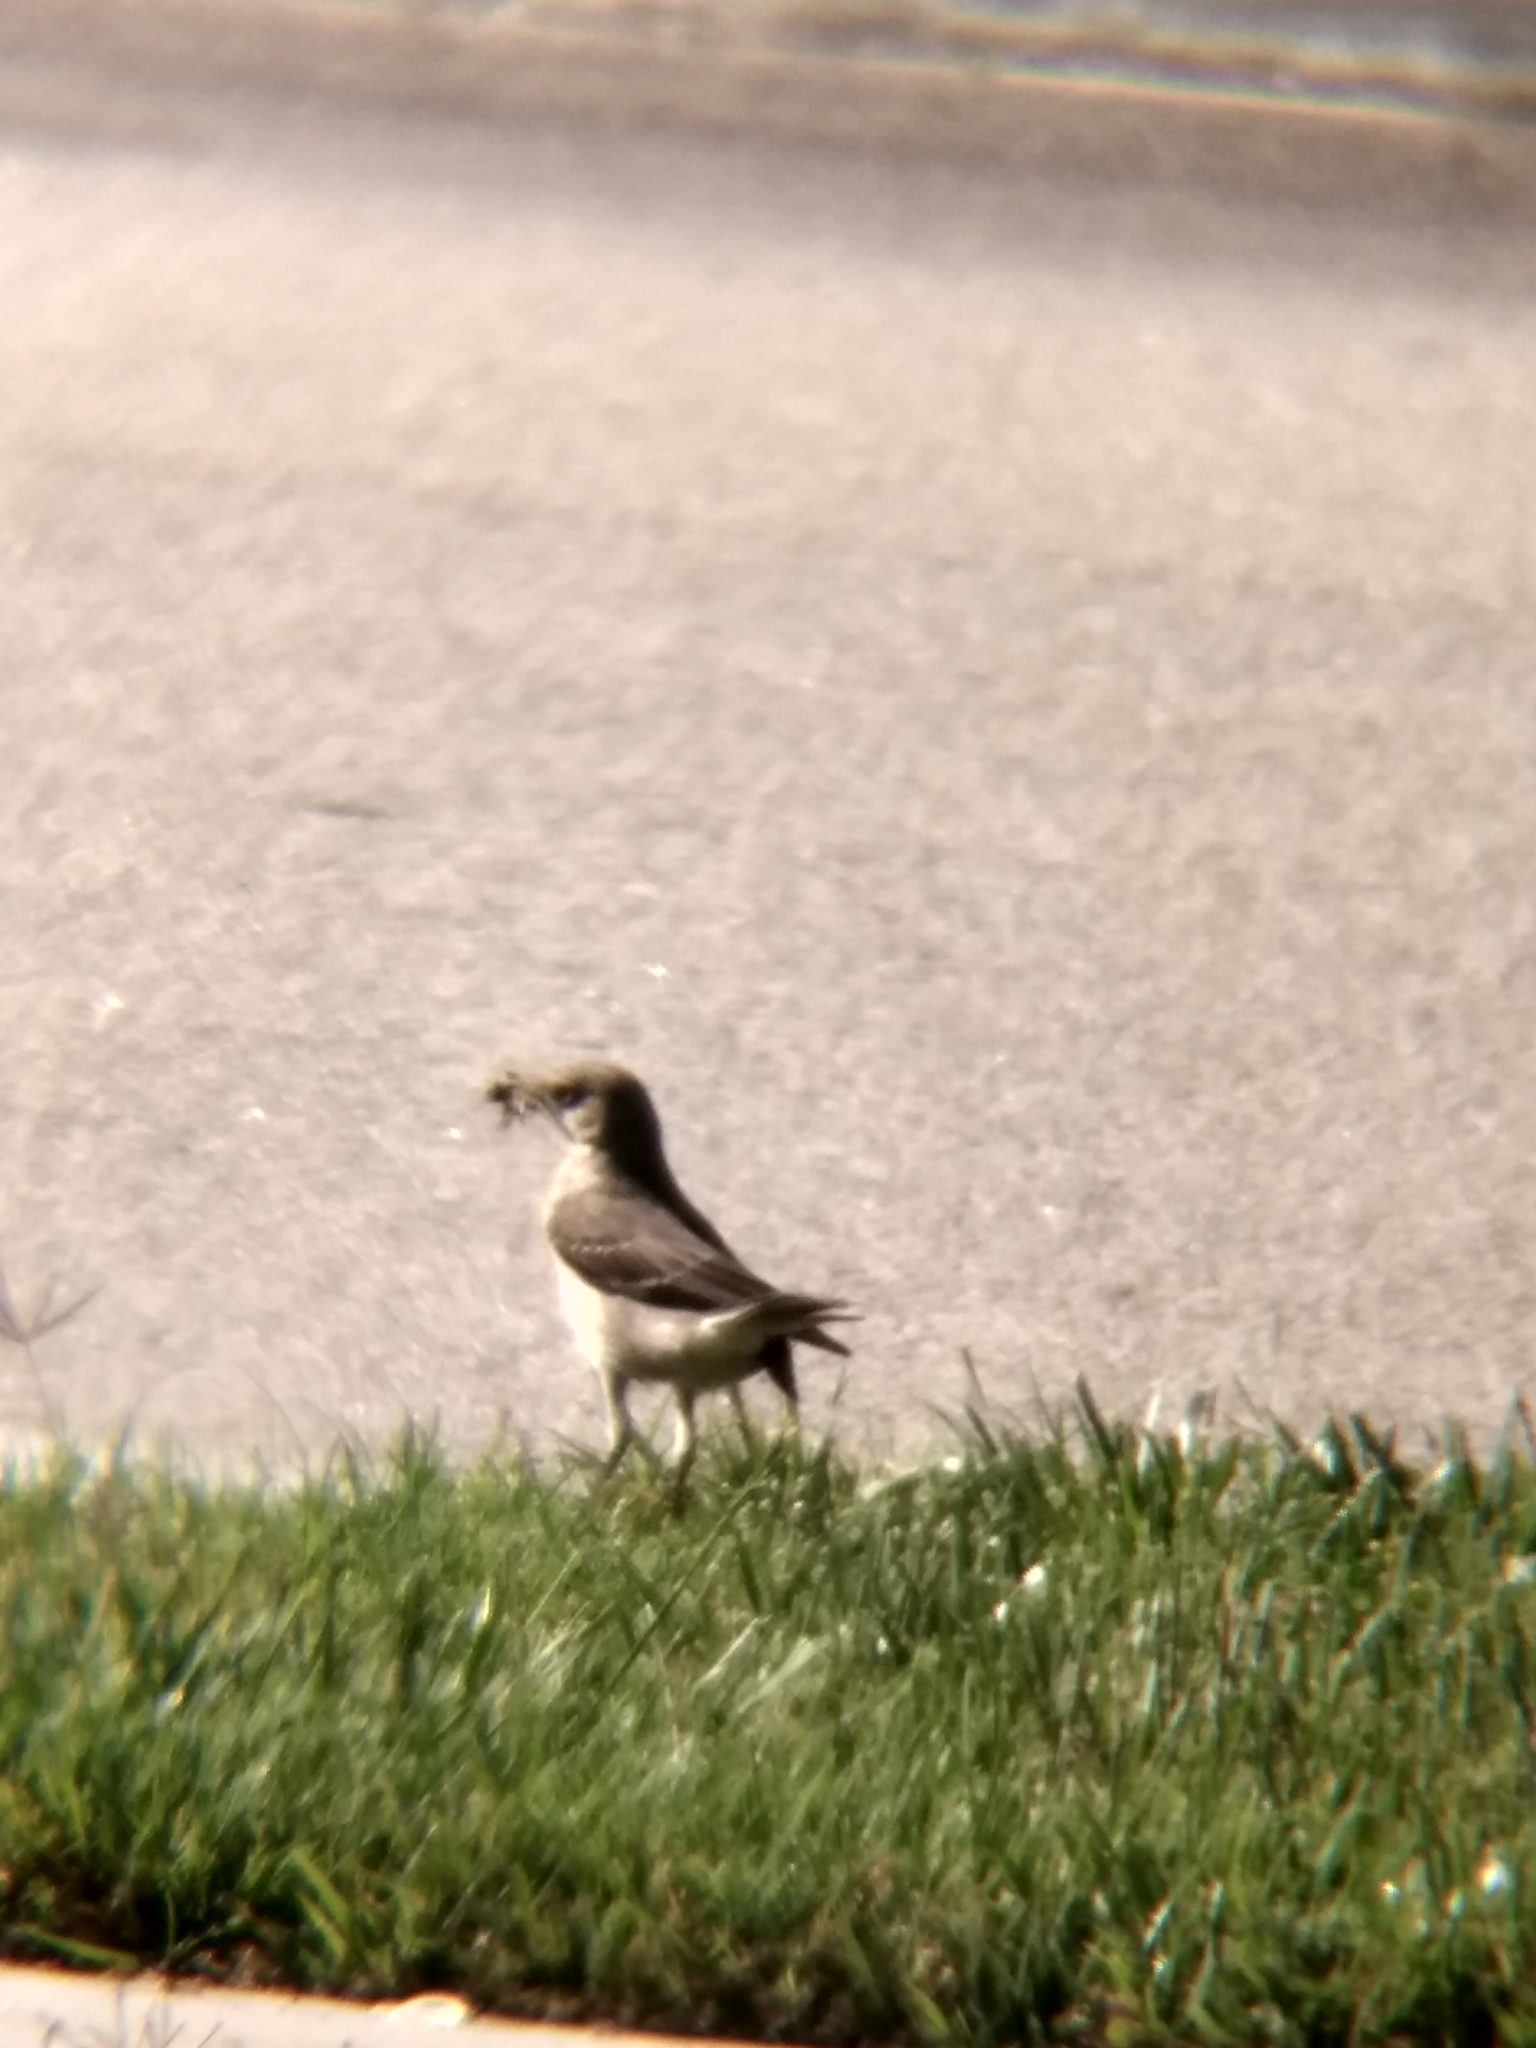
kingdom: Animalia
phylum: Chordata
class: Aves
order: Passeriformes
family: Mimidae
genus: Mimus
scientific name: Mimus polyglottos
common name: Northern mockingbird
